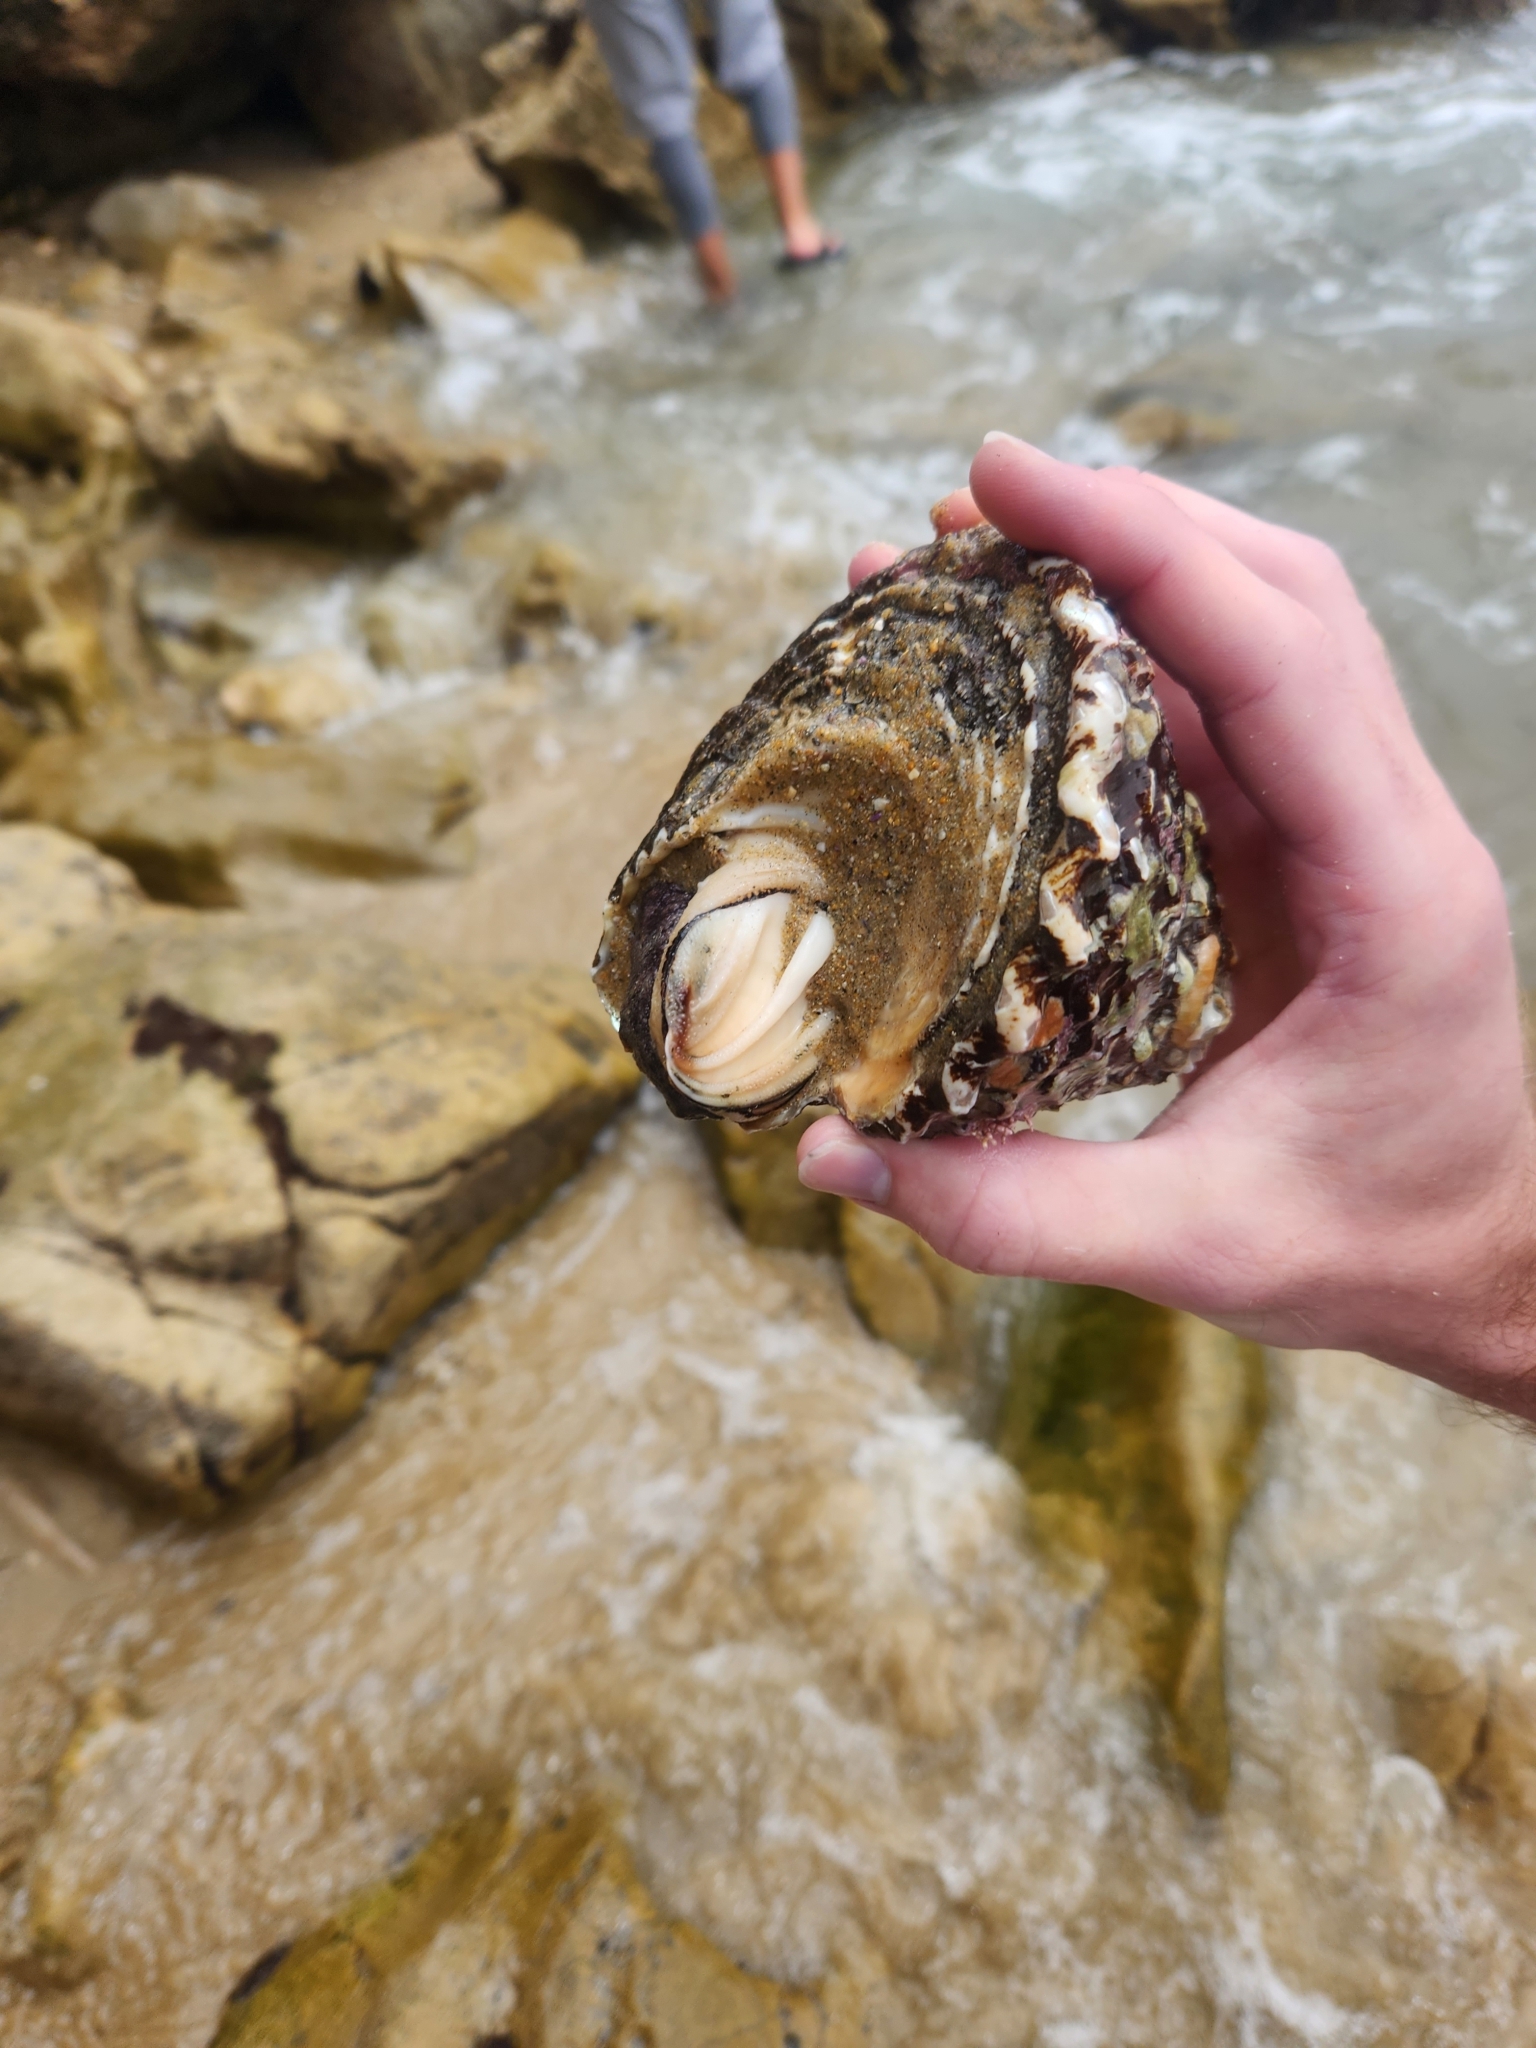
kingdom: Animalia
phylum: Mollusca
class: Gastropoda
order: Trochida
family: Turbinidae
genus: Megastraea
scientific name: Megastraea undosa
